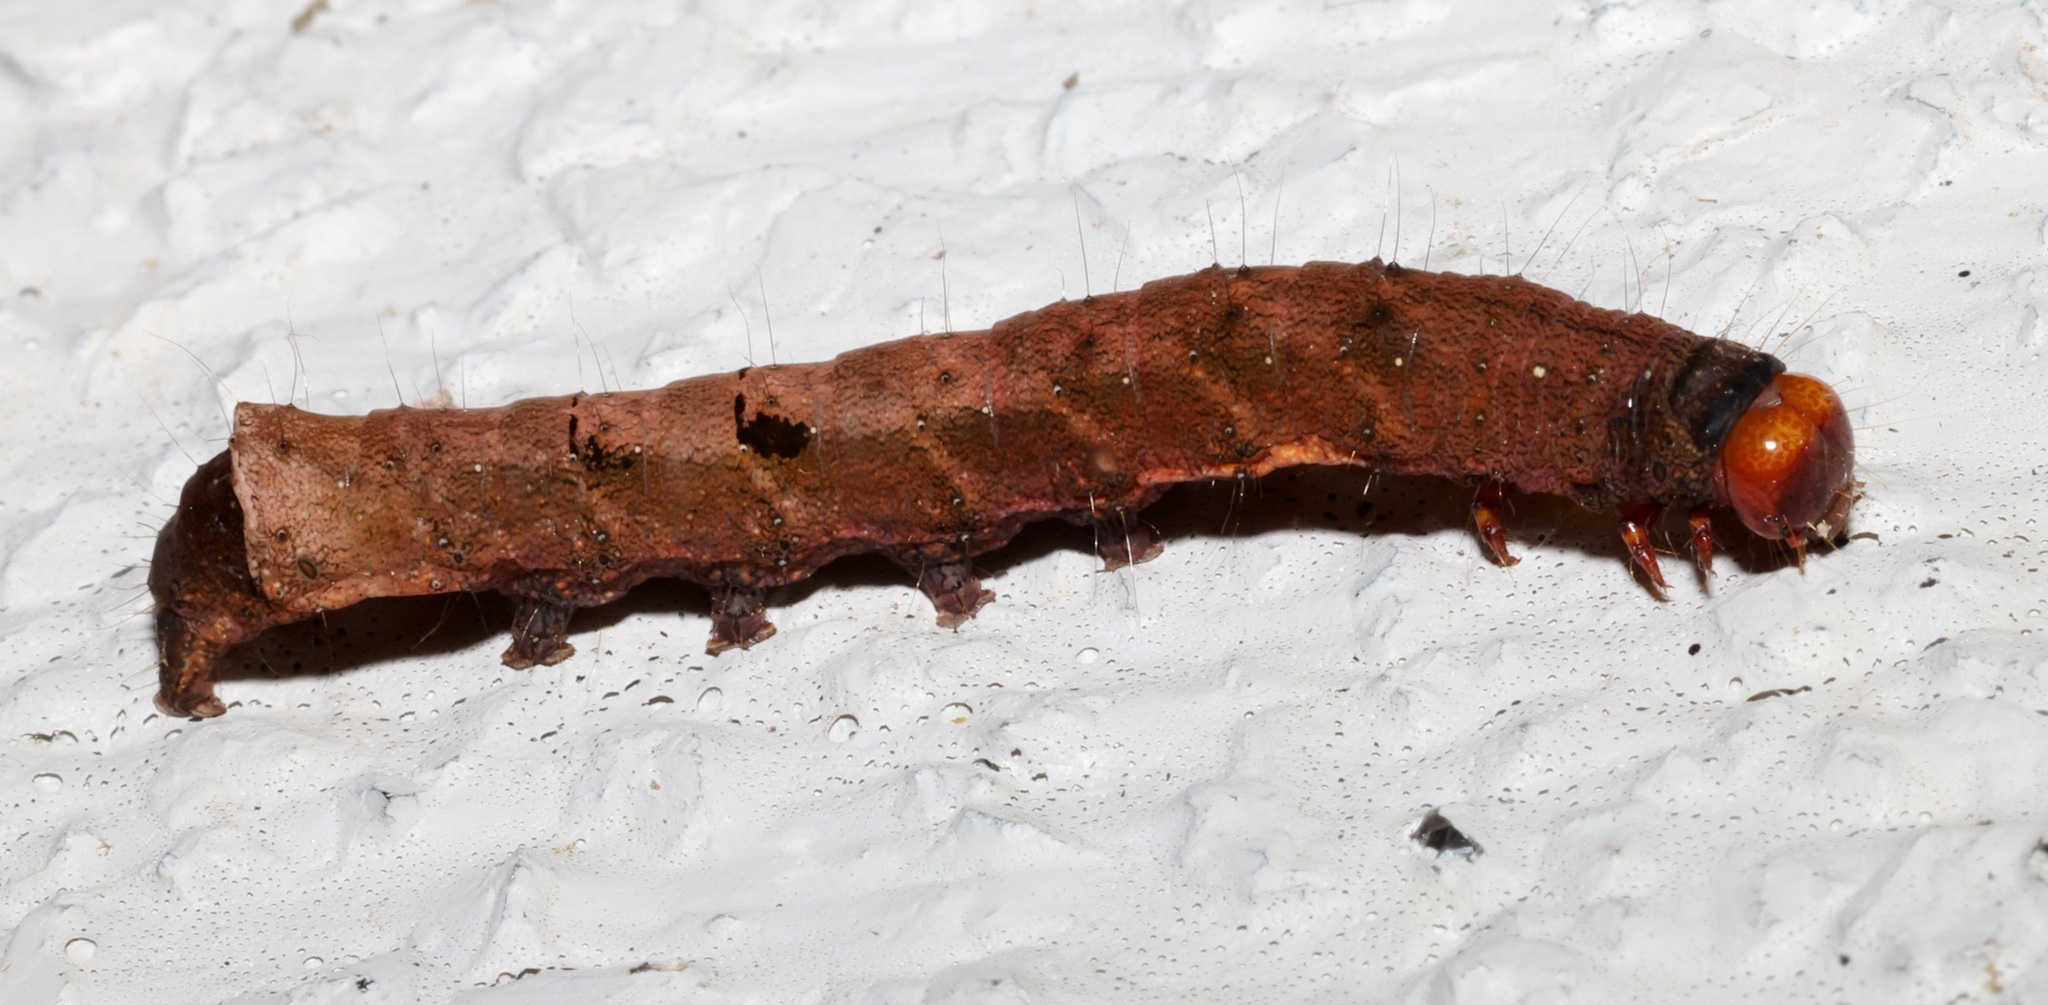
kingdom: Animalia
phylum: Arthropoda
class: Insecta
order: Lepidoptera
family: Noctuidae
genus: Tiracola
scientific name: Tiracola aureata
